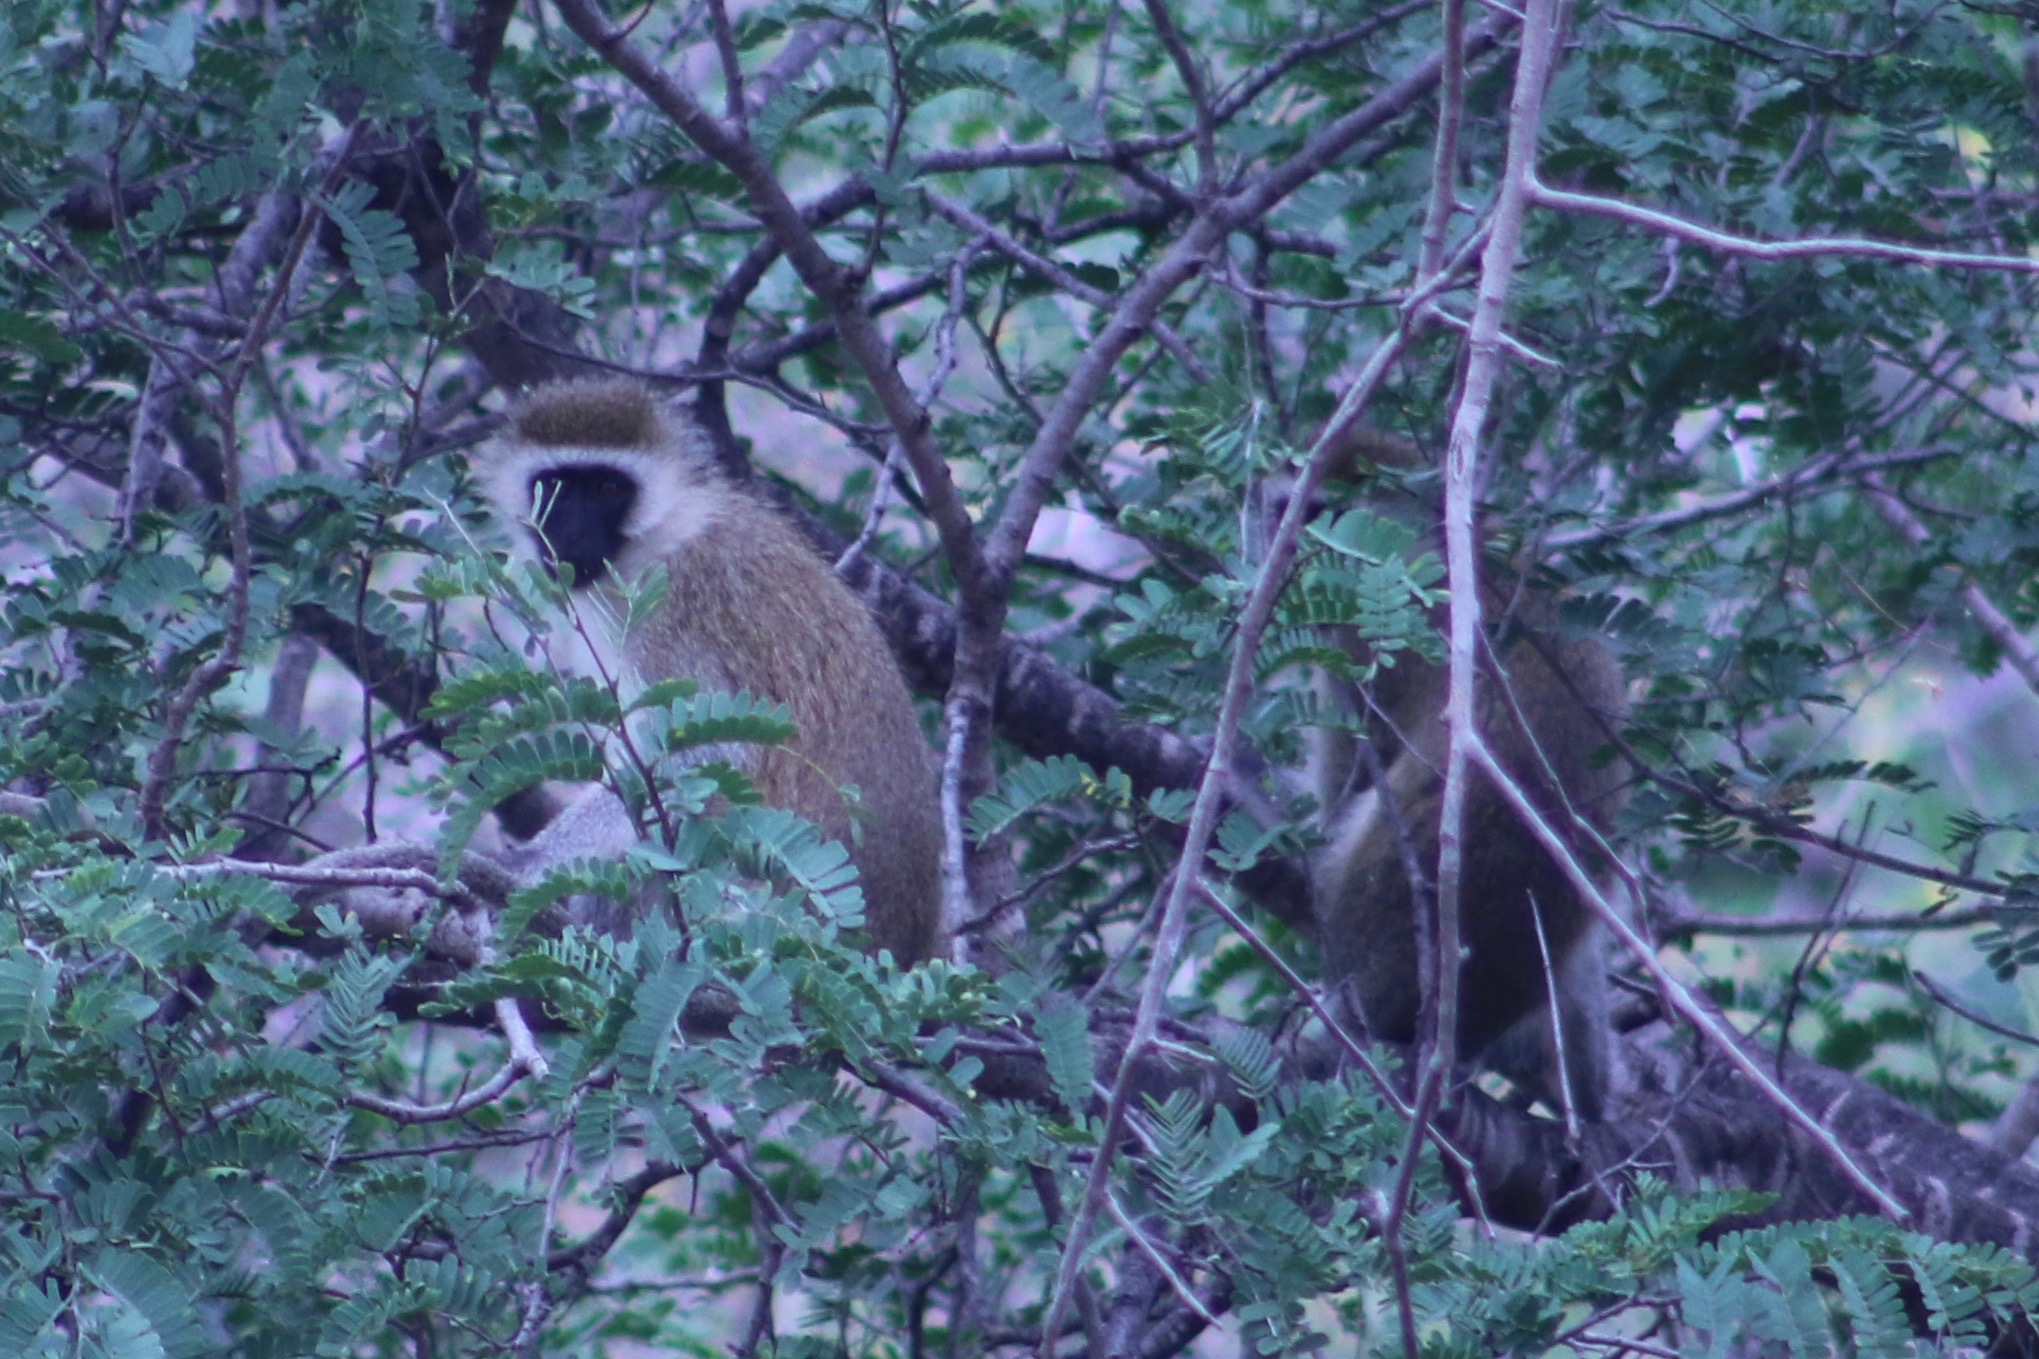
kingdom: Animalia
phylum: Chordata
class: Mammalia
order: Primates
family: Cercopithecidae
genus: Chlorocebus
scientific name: Chlorocebus pygerythrus
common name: Vervet monkey
